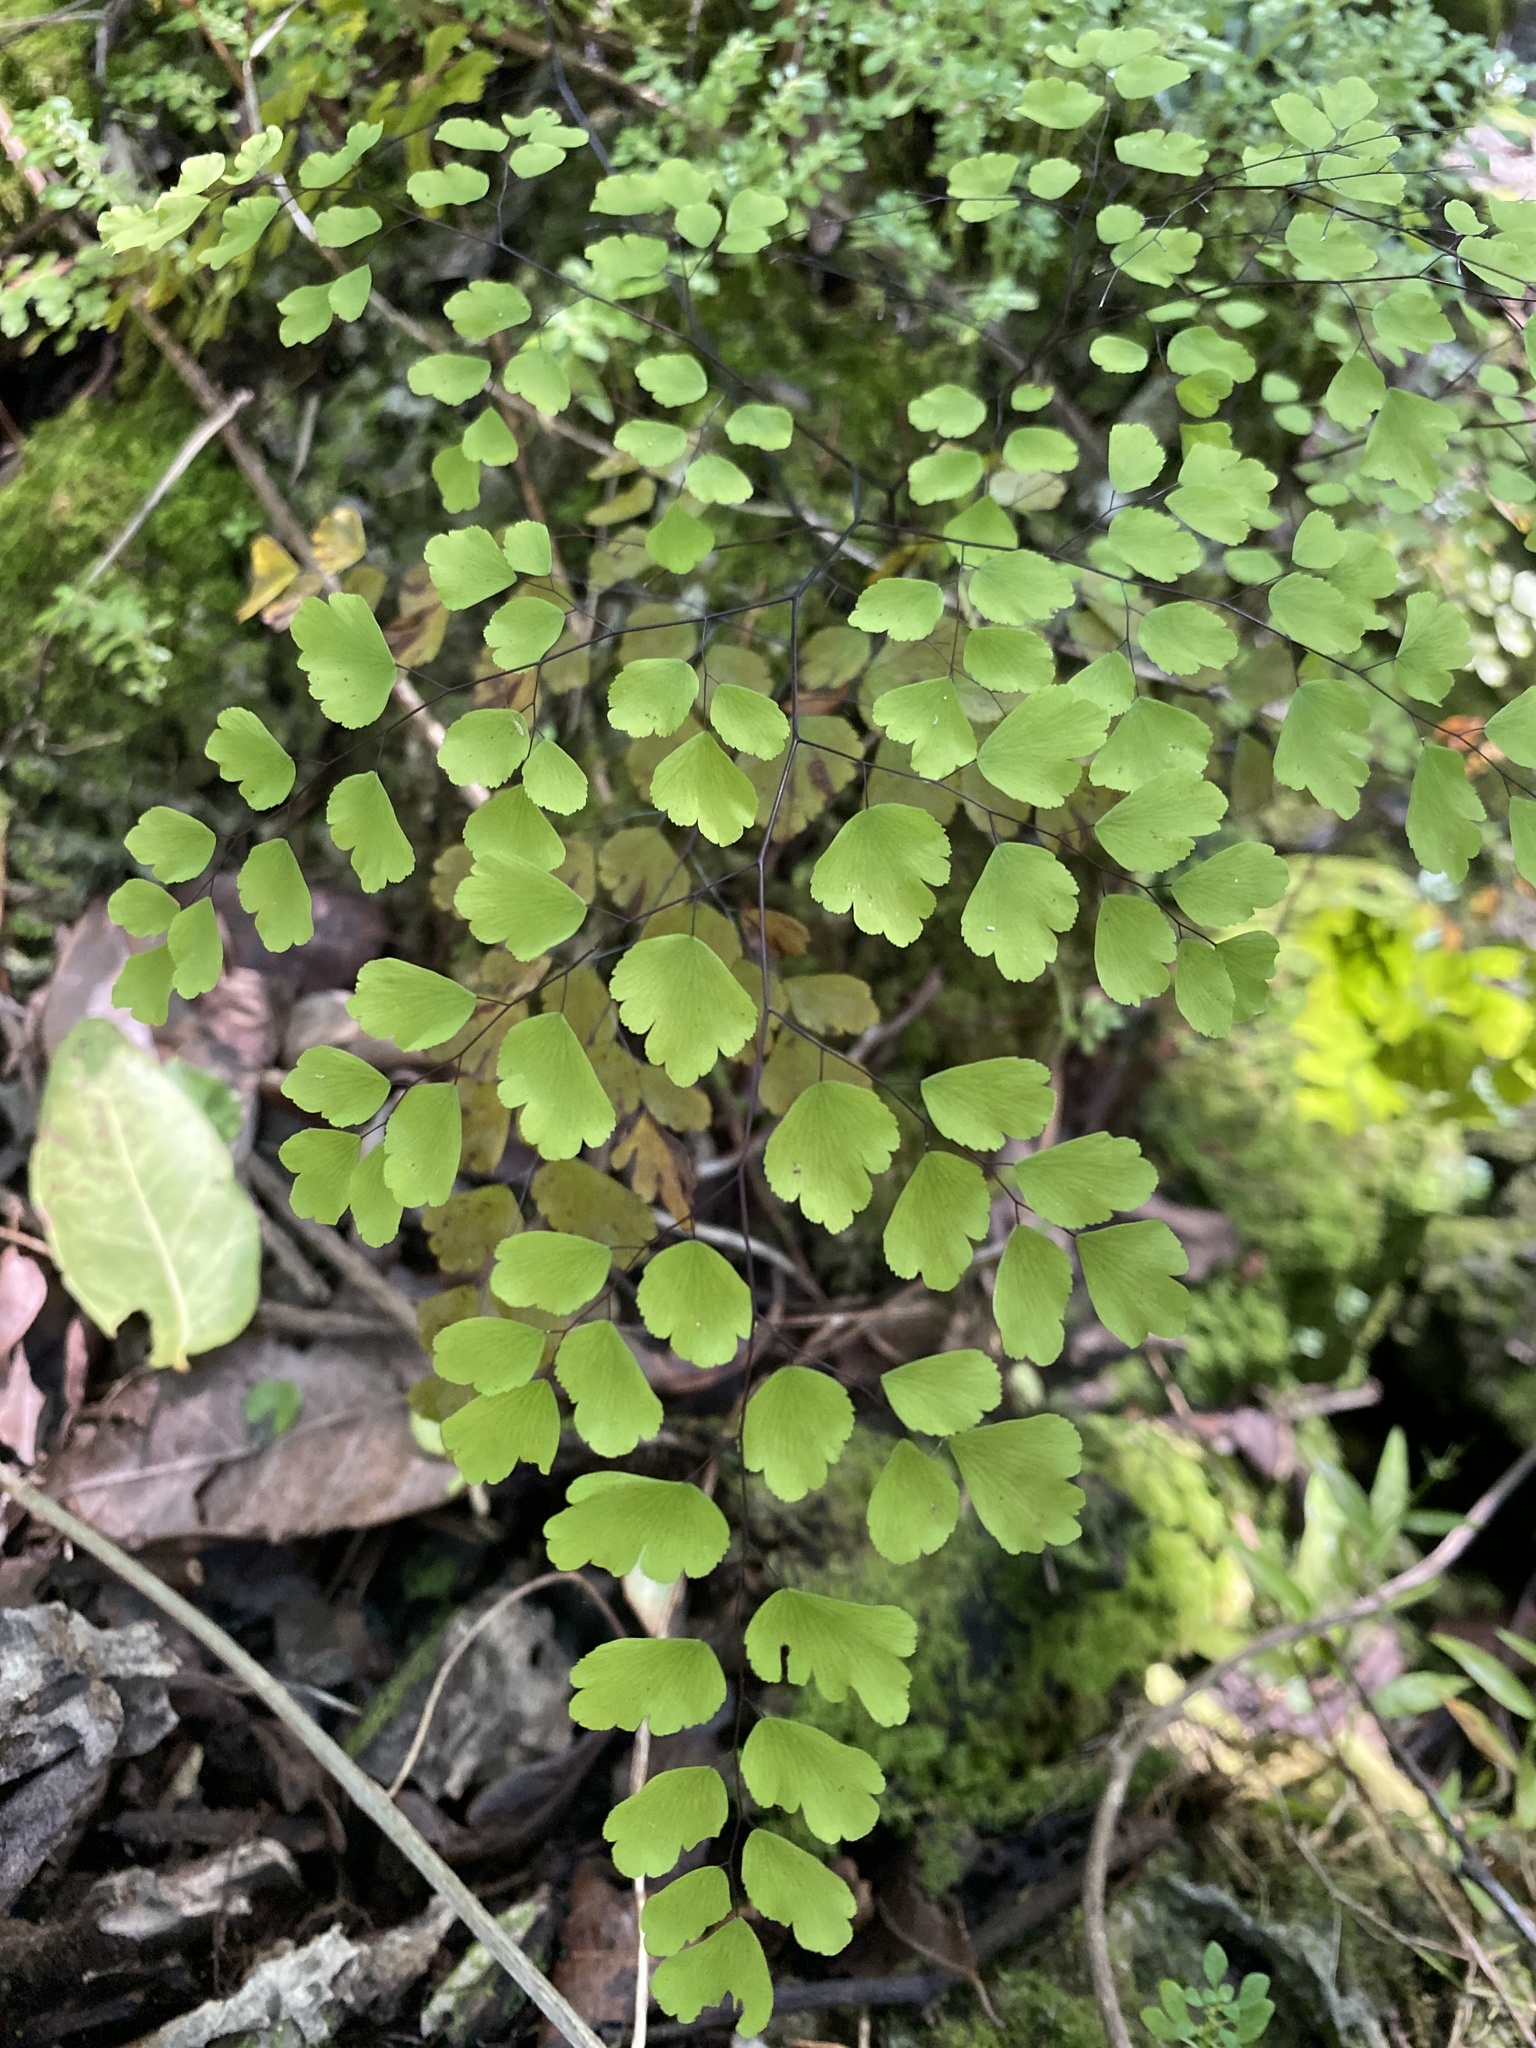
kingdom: Plantae
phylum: Tracheophyta
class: Polypodiopsida
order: Polypodiales
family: Pteridaceae
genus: Adiantum
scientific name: Adiantum tenerum
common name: Fan maidenhair
